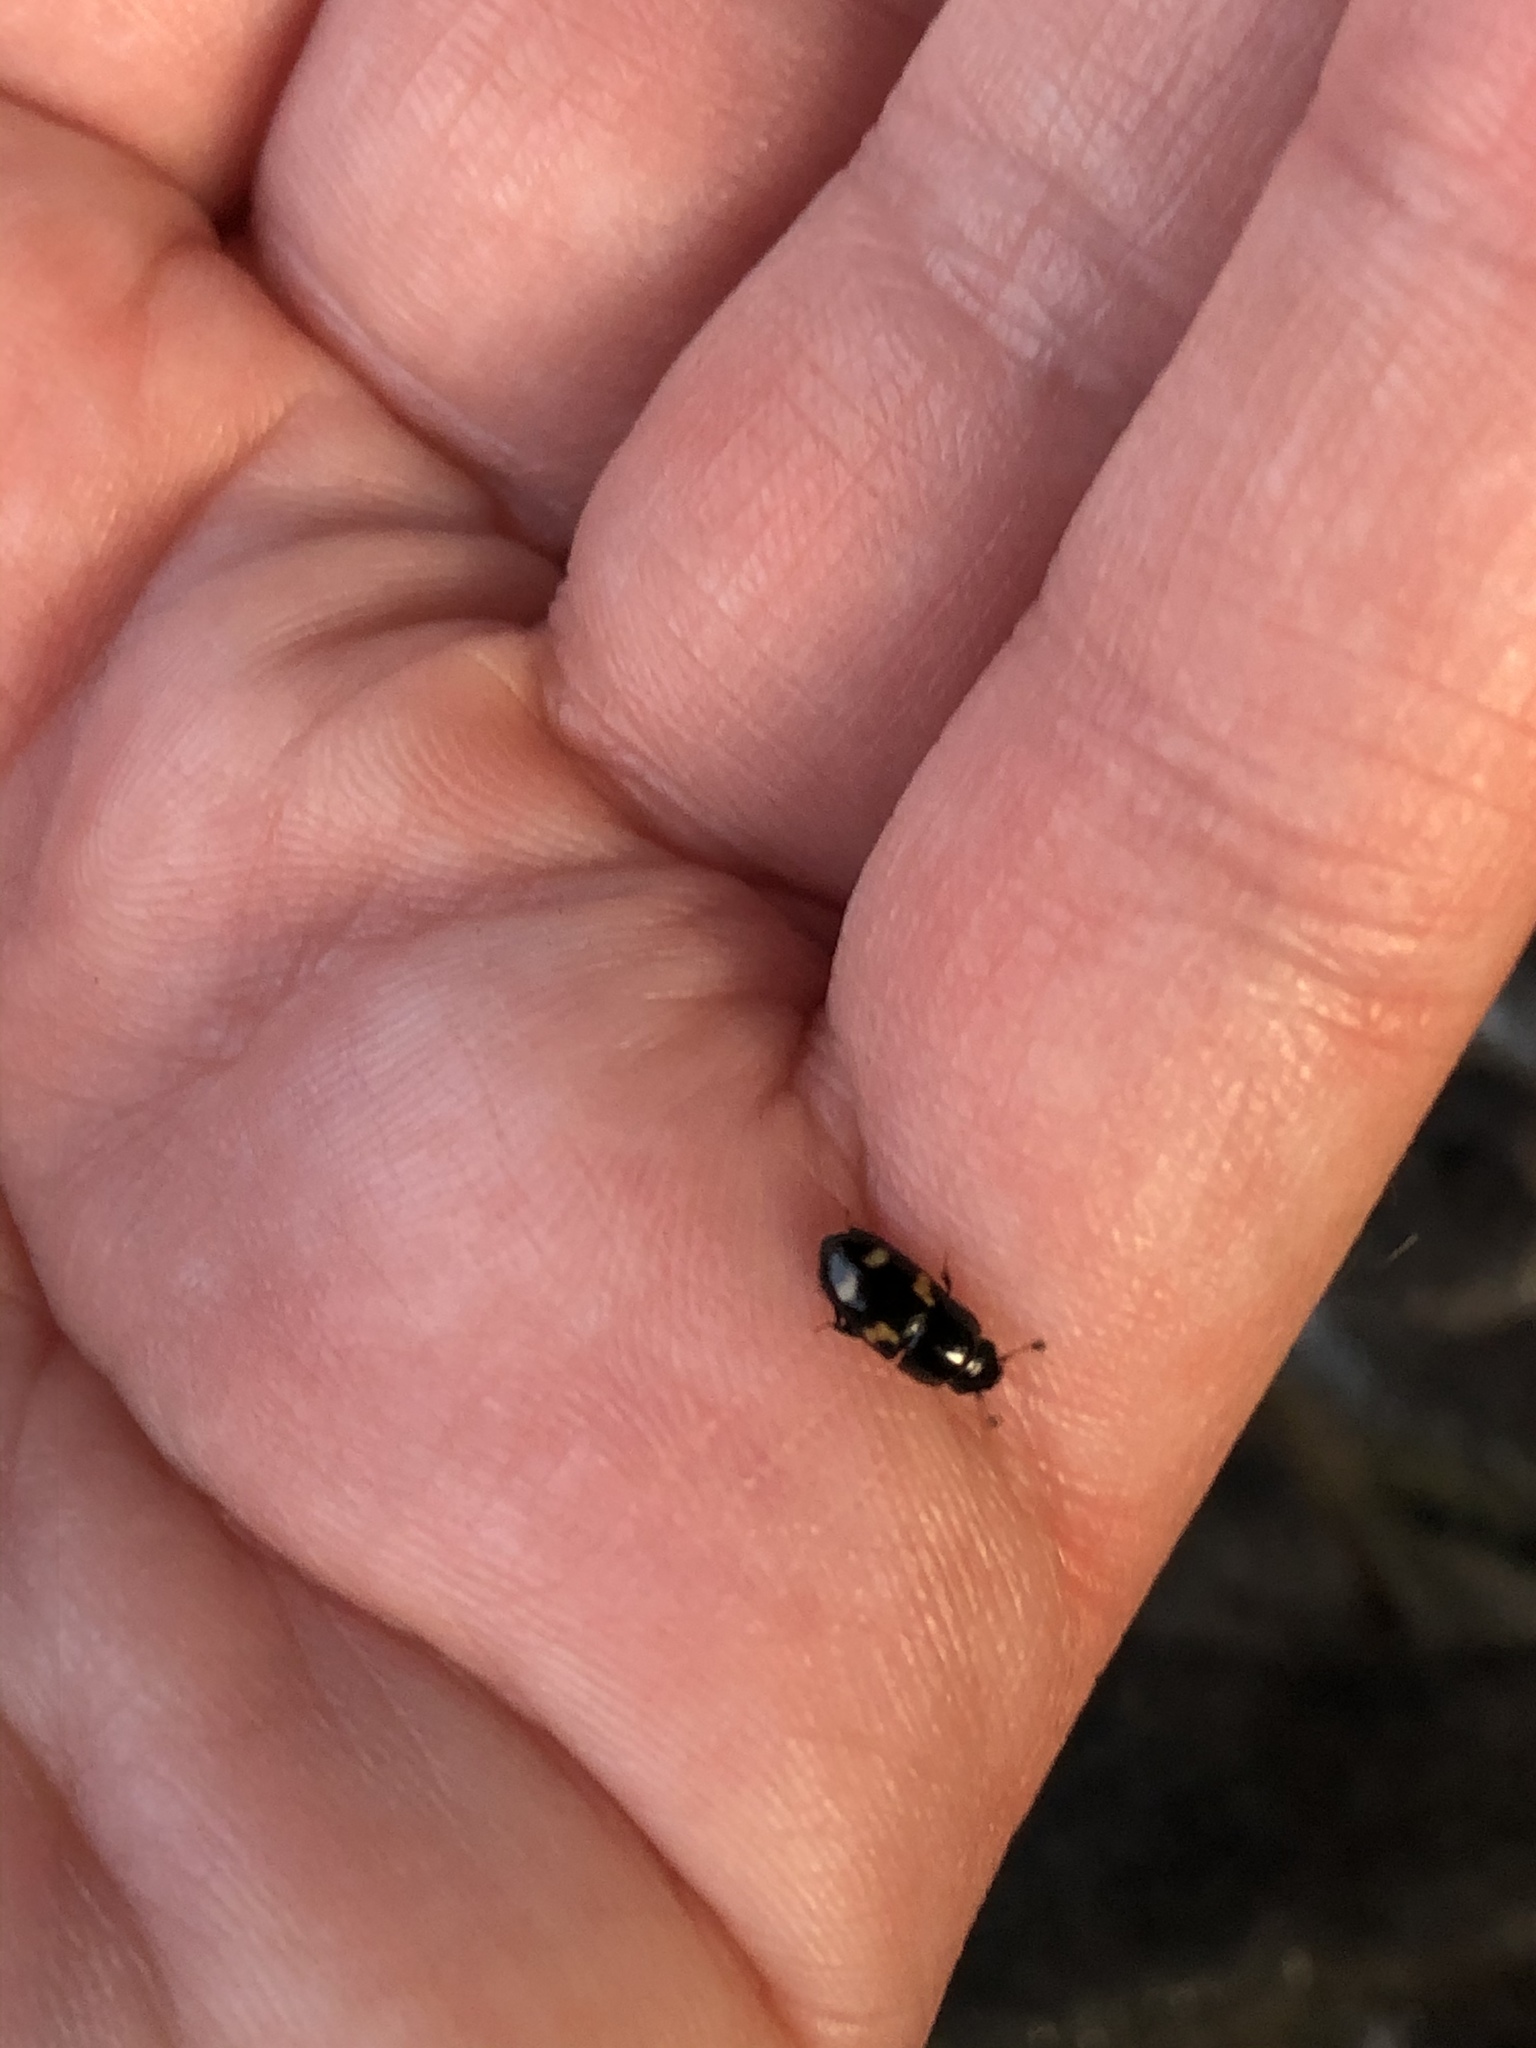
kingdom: Animalia
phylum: Arthropoda
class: Insecta
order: Coleoptera
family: Nitidulidae
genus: Glischrochilus
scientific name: Glischrochilus quadrisignatus
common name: Picnic beetle
